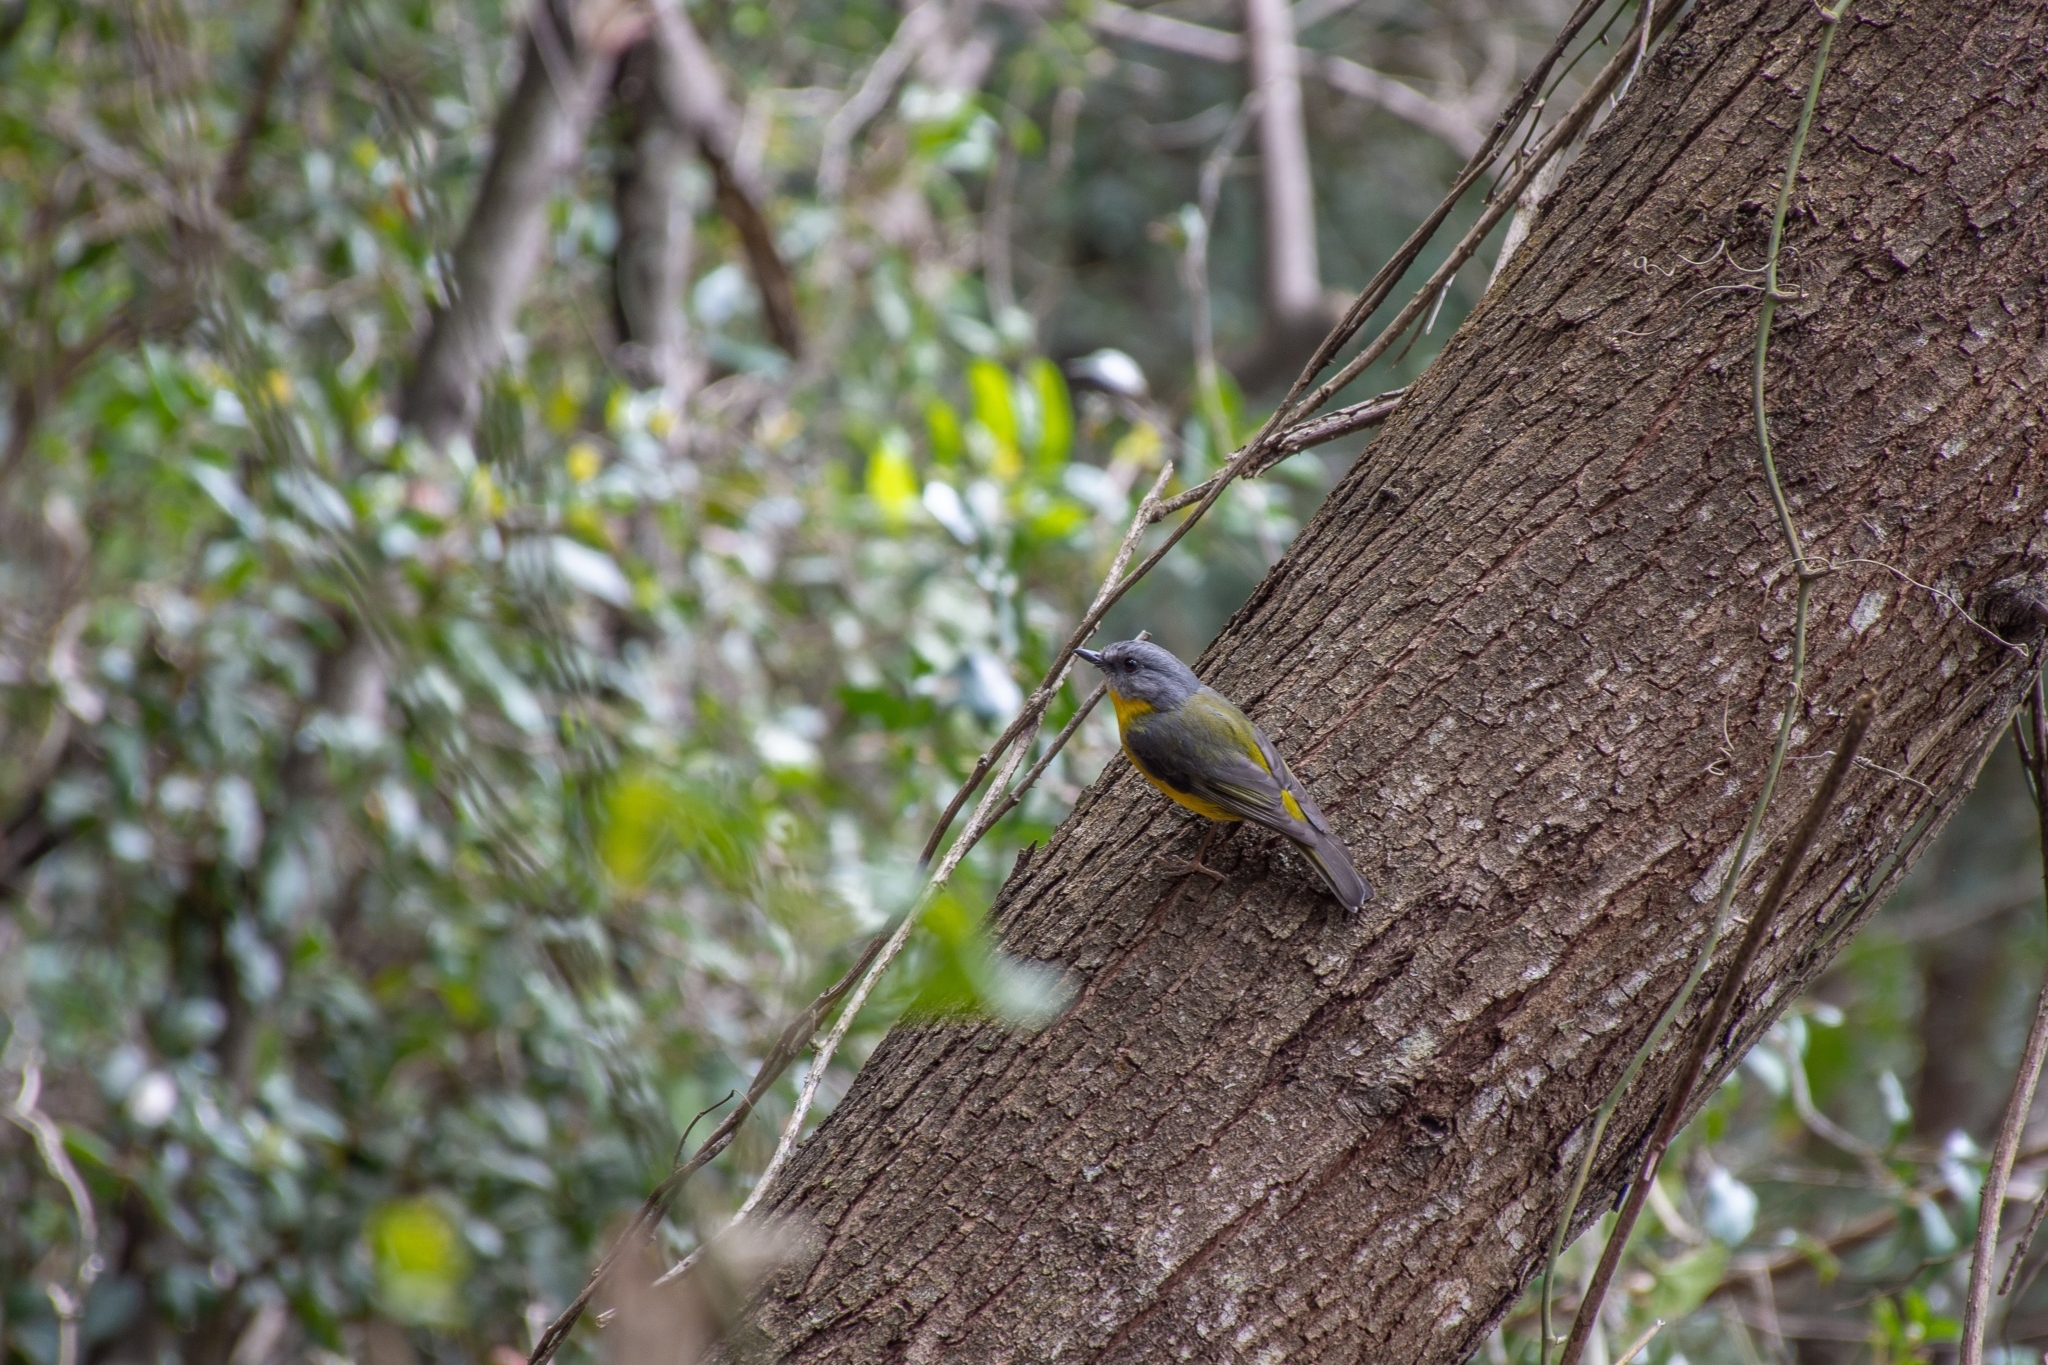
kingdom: Animalia
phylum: Chordata
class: Aves
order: Passeriformes
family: Petroicidae
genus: Eopsaltria
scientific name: Eopsaltria australis
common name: Eastern yellow robin
